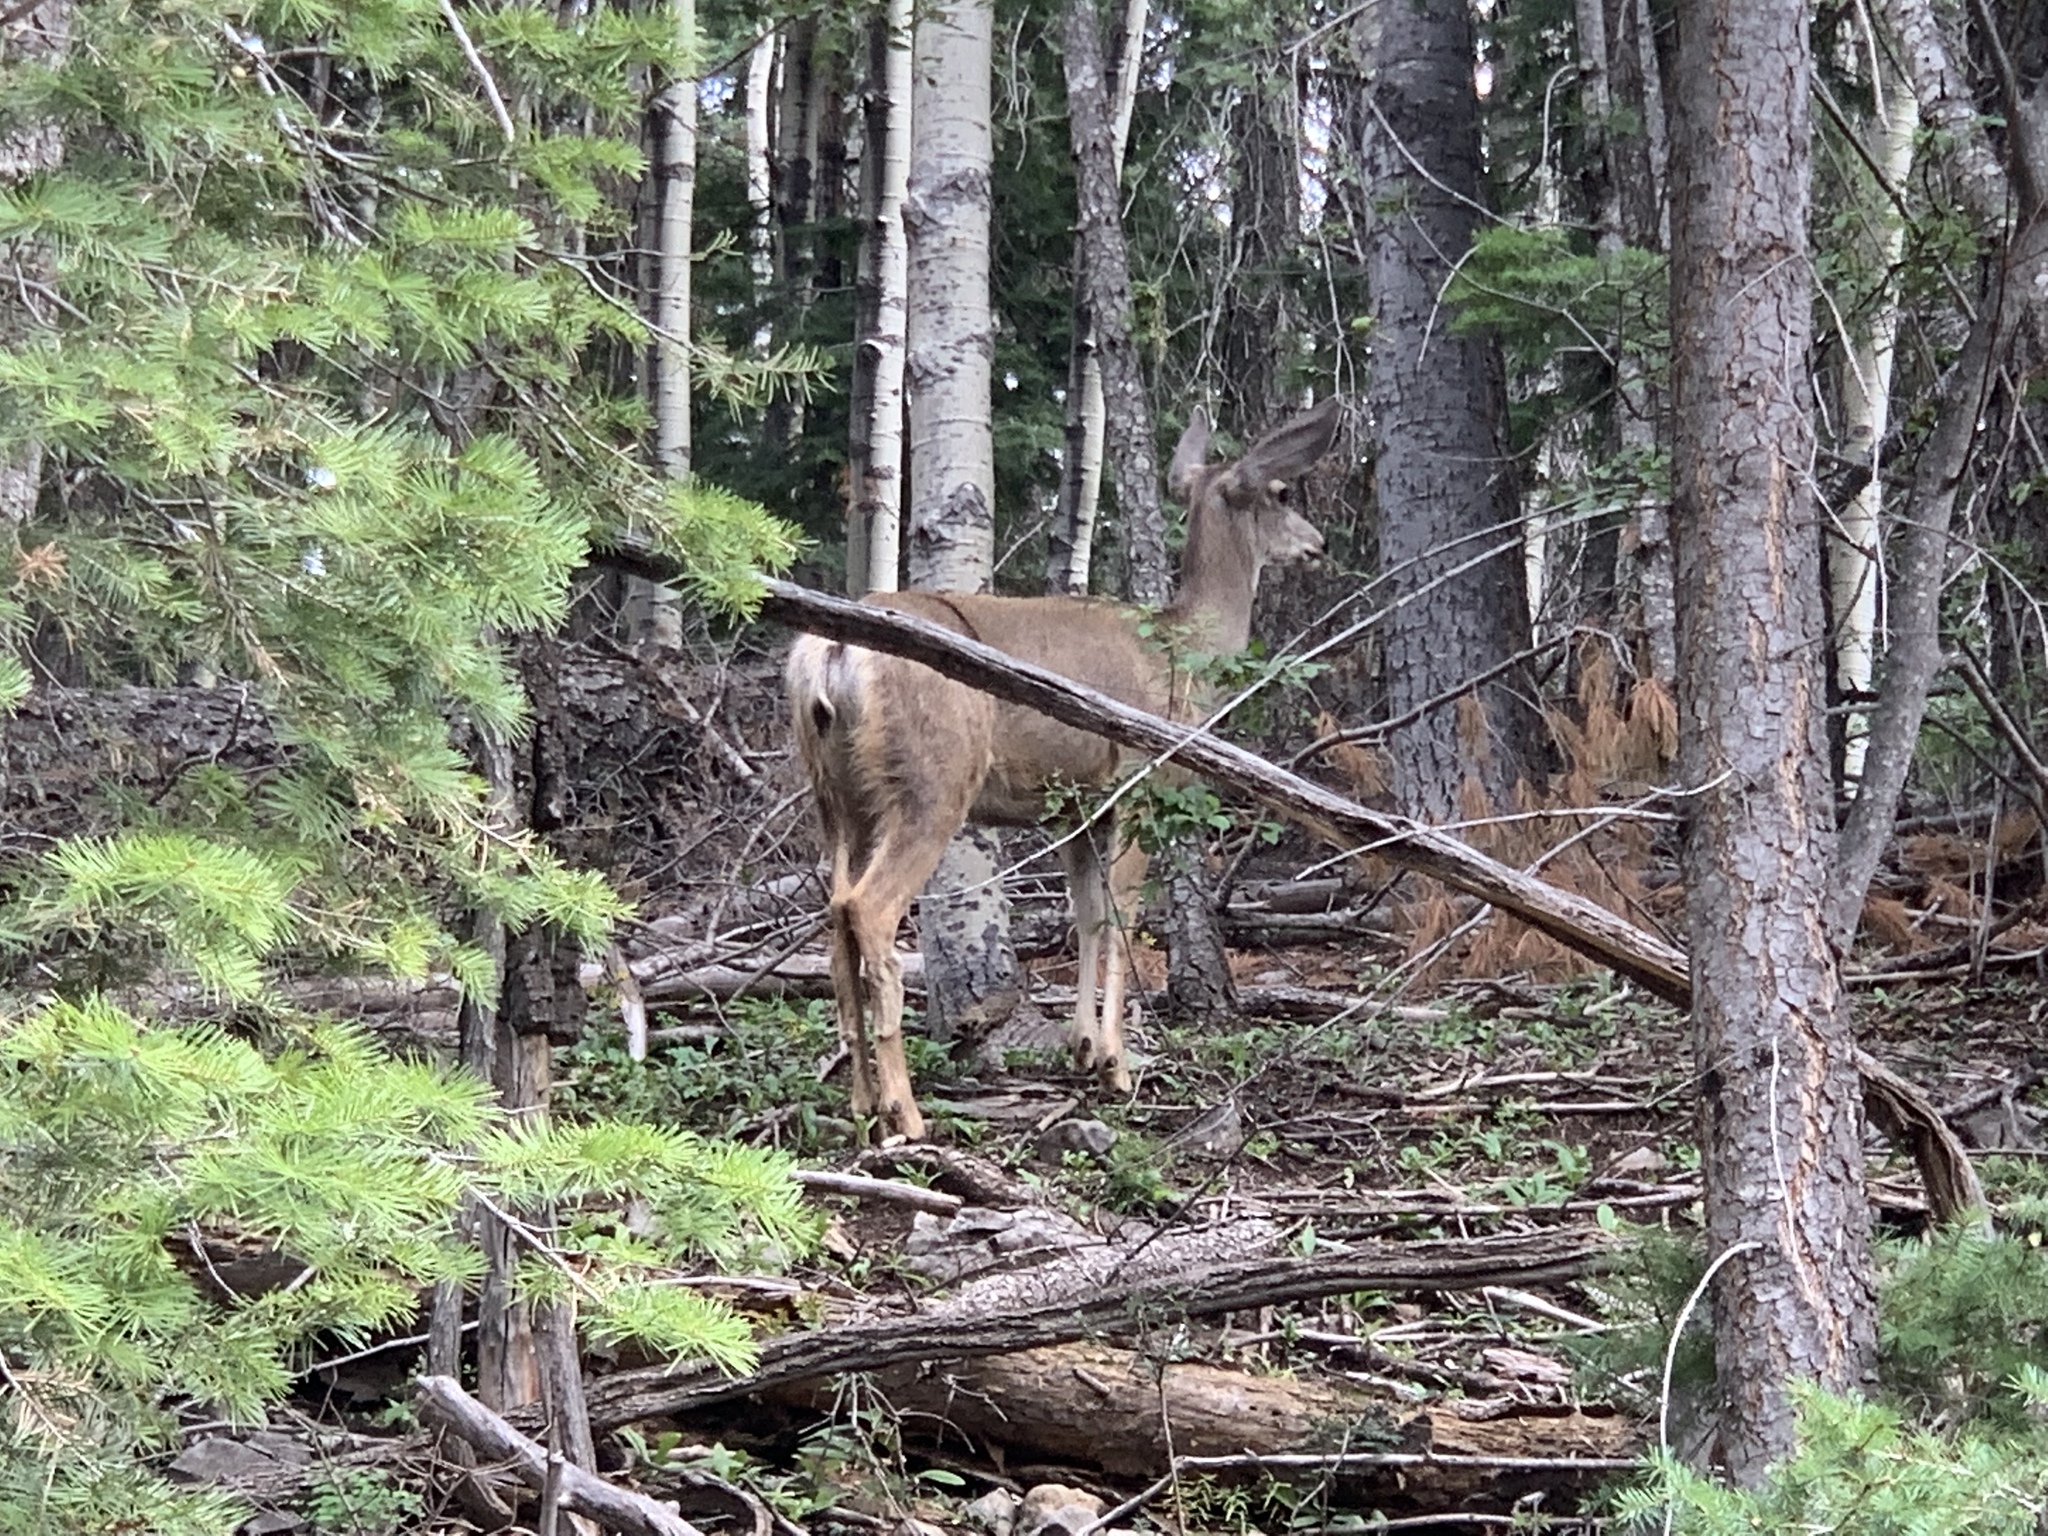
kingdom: Animalia
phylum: Chordata
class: Mammalia
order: Artiodactyla
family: Cervidae
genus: Odocoileus
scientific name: Odocoileus hemionus
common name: Mule deer
